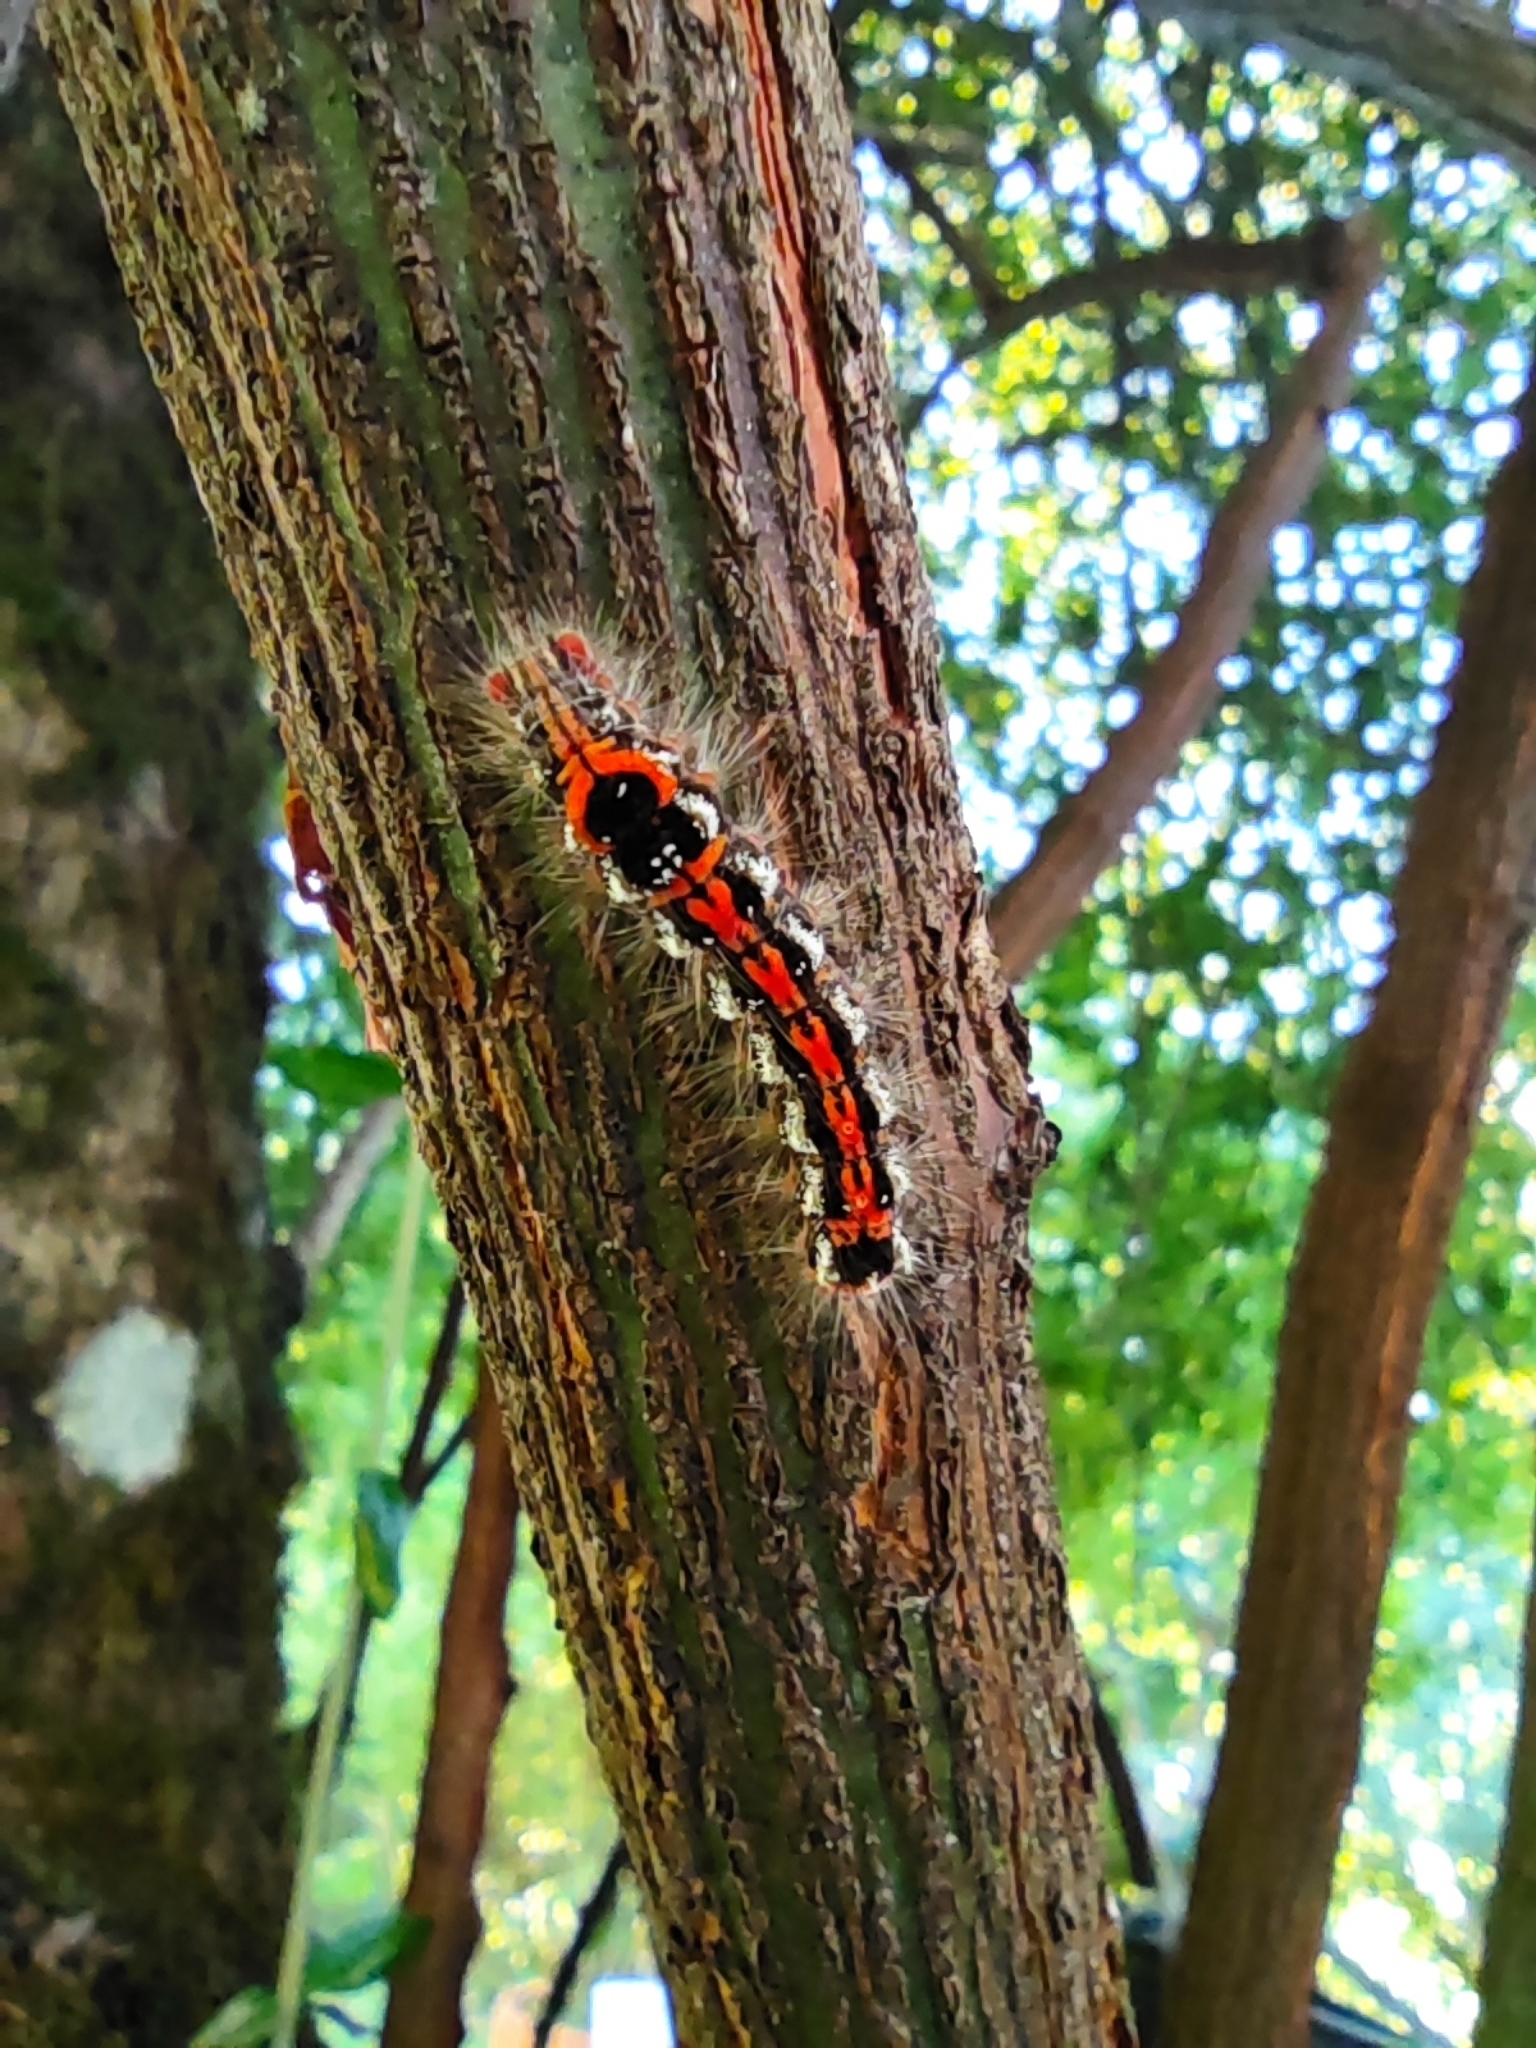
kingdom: Animalia
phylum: Arthropoda
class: Insecta
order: Lepidoptera
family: Erebidae
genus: Sphrageidus
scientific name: Sphrageidus similis
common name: Yellow-tail
